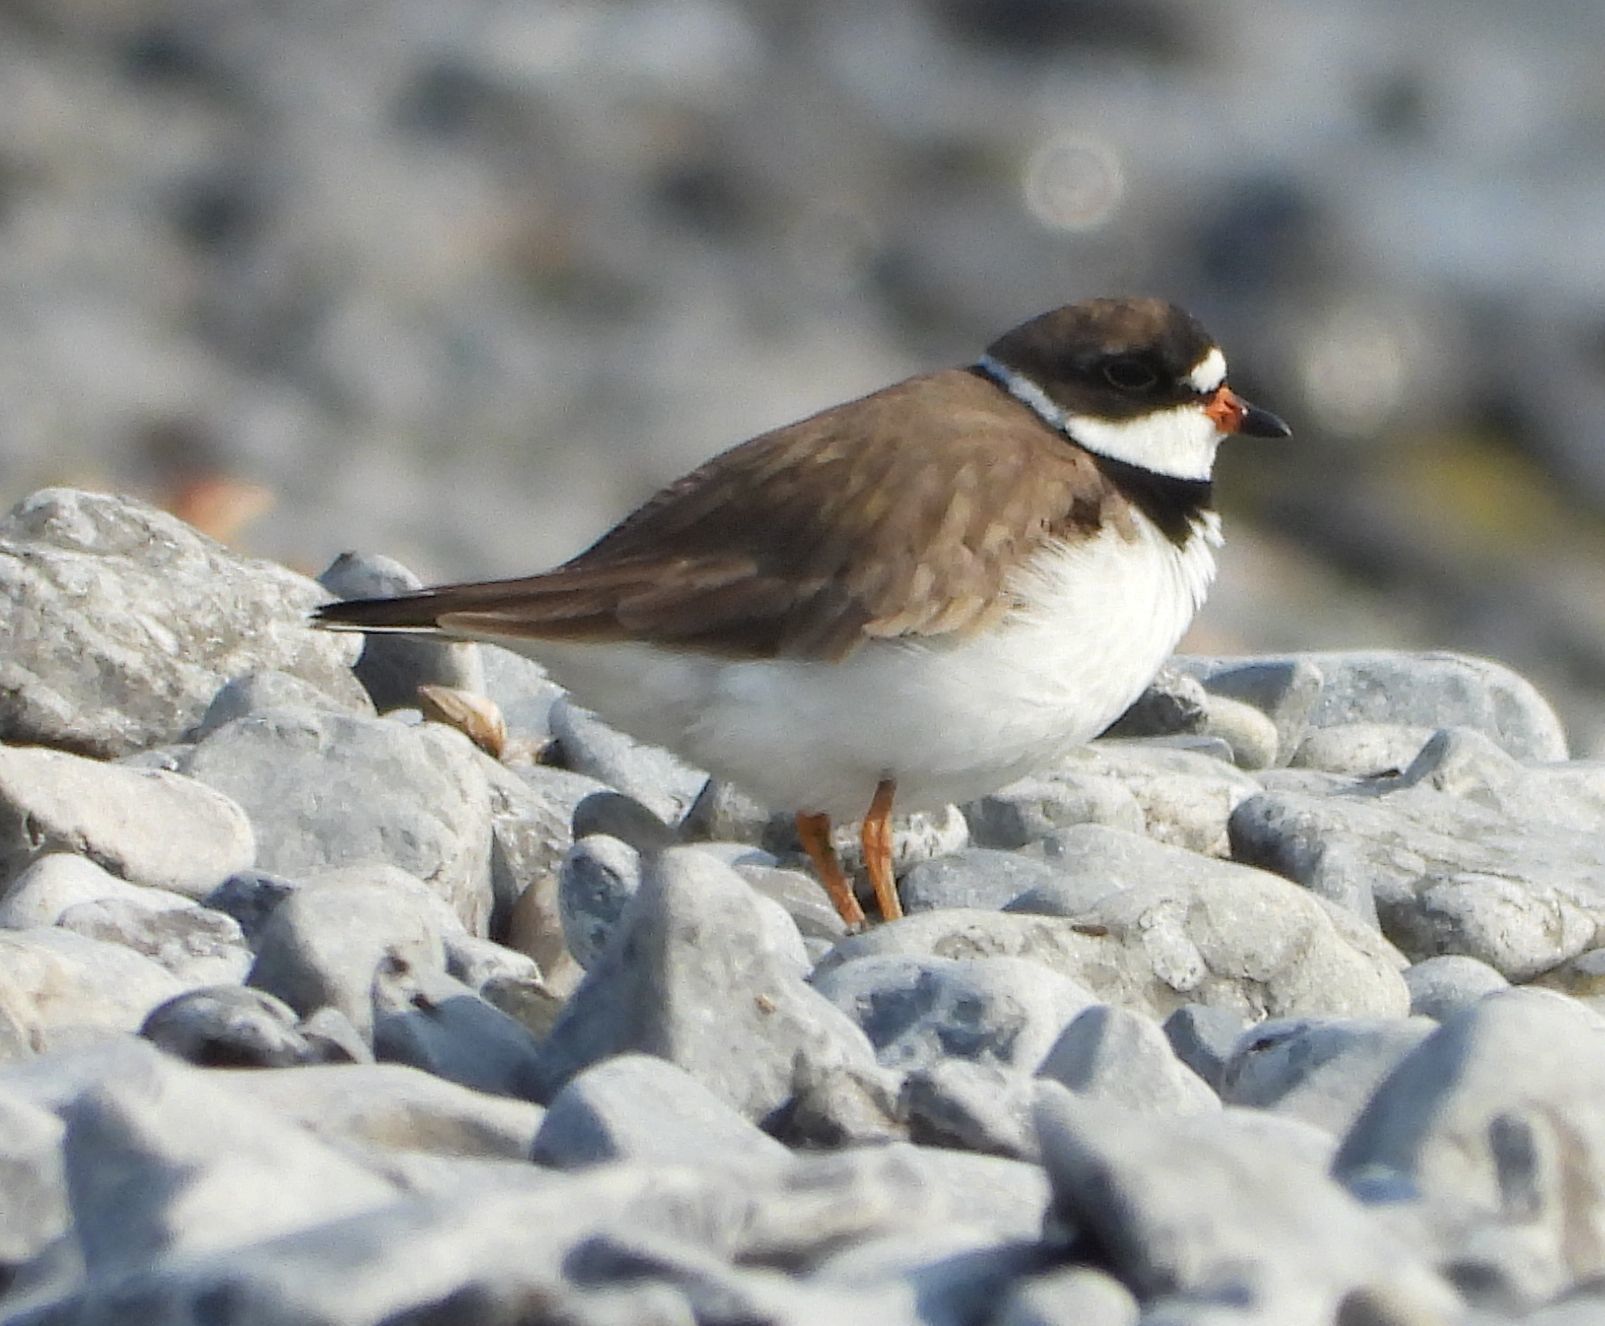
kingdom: Animalia
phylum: Chordata
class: Aves
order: Charadriiformes
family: Charadriidae
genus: Charadrius
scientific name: Charadrius semipalmatus
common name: Semipalmated plover
